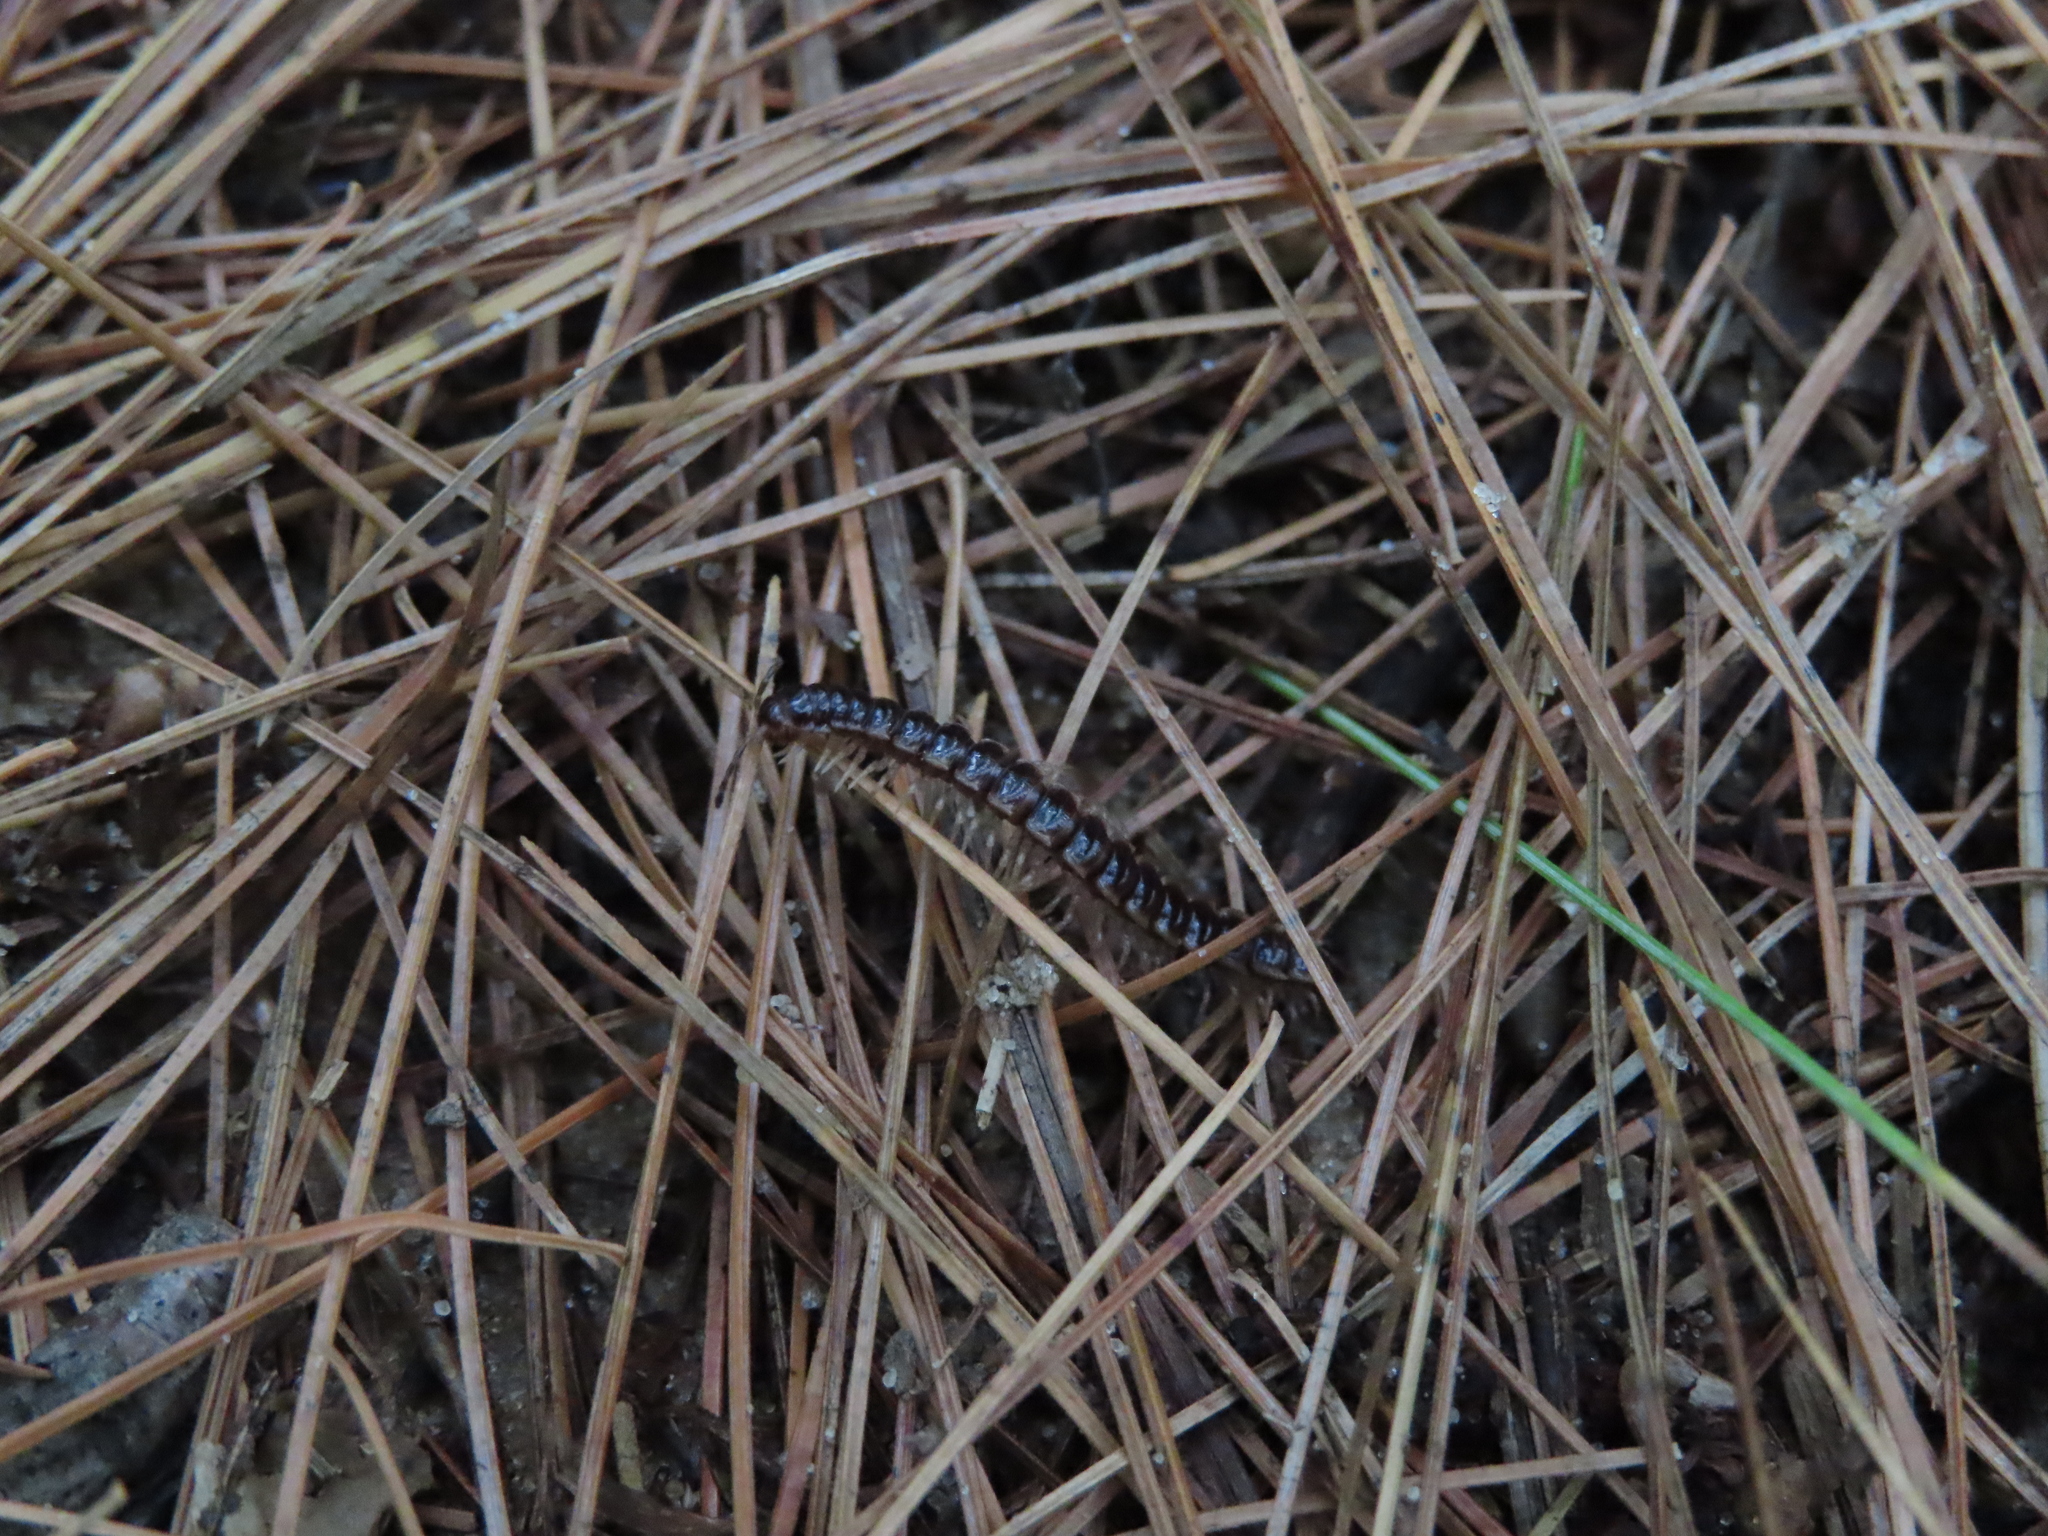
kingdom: Animalia
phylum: Arthropoda
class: Diplopoda
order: Polydesmida
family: Paradoxosomatidae
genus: Oxidus
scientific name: Oxidus gracilis
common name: Greenhouse millipede
